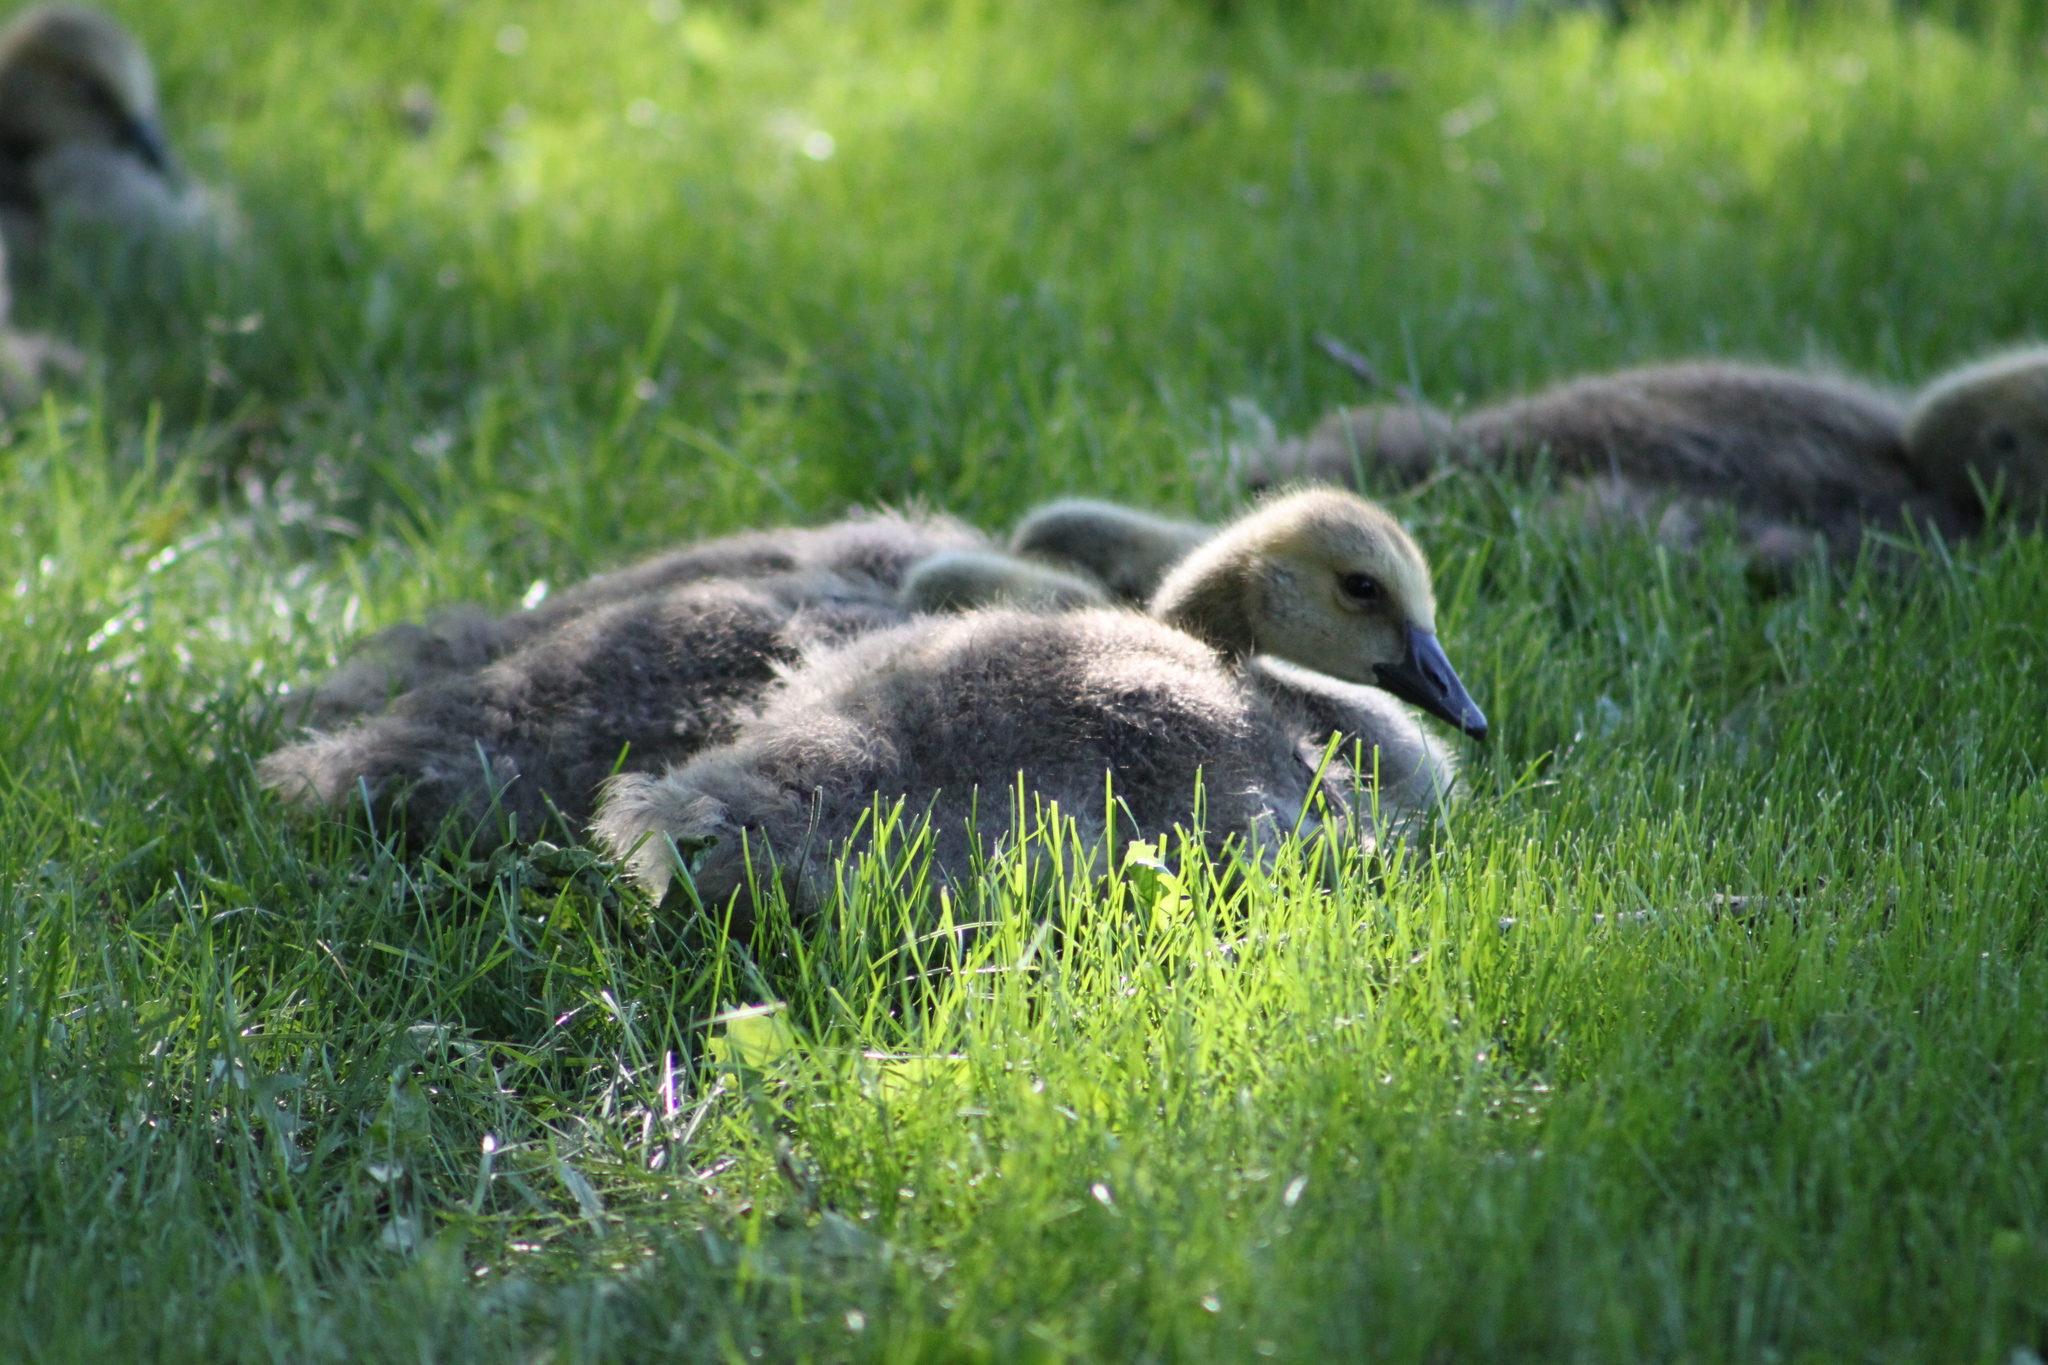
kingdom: Animalia
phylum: Chordata
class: Aves
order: Anseriformes
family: Anatidae
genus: Branta
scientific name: Branta canadensis
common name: Canada goose
